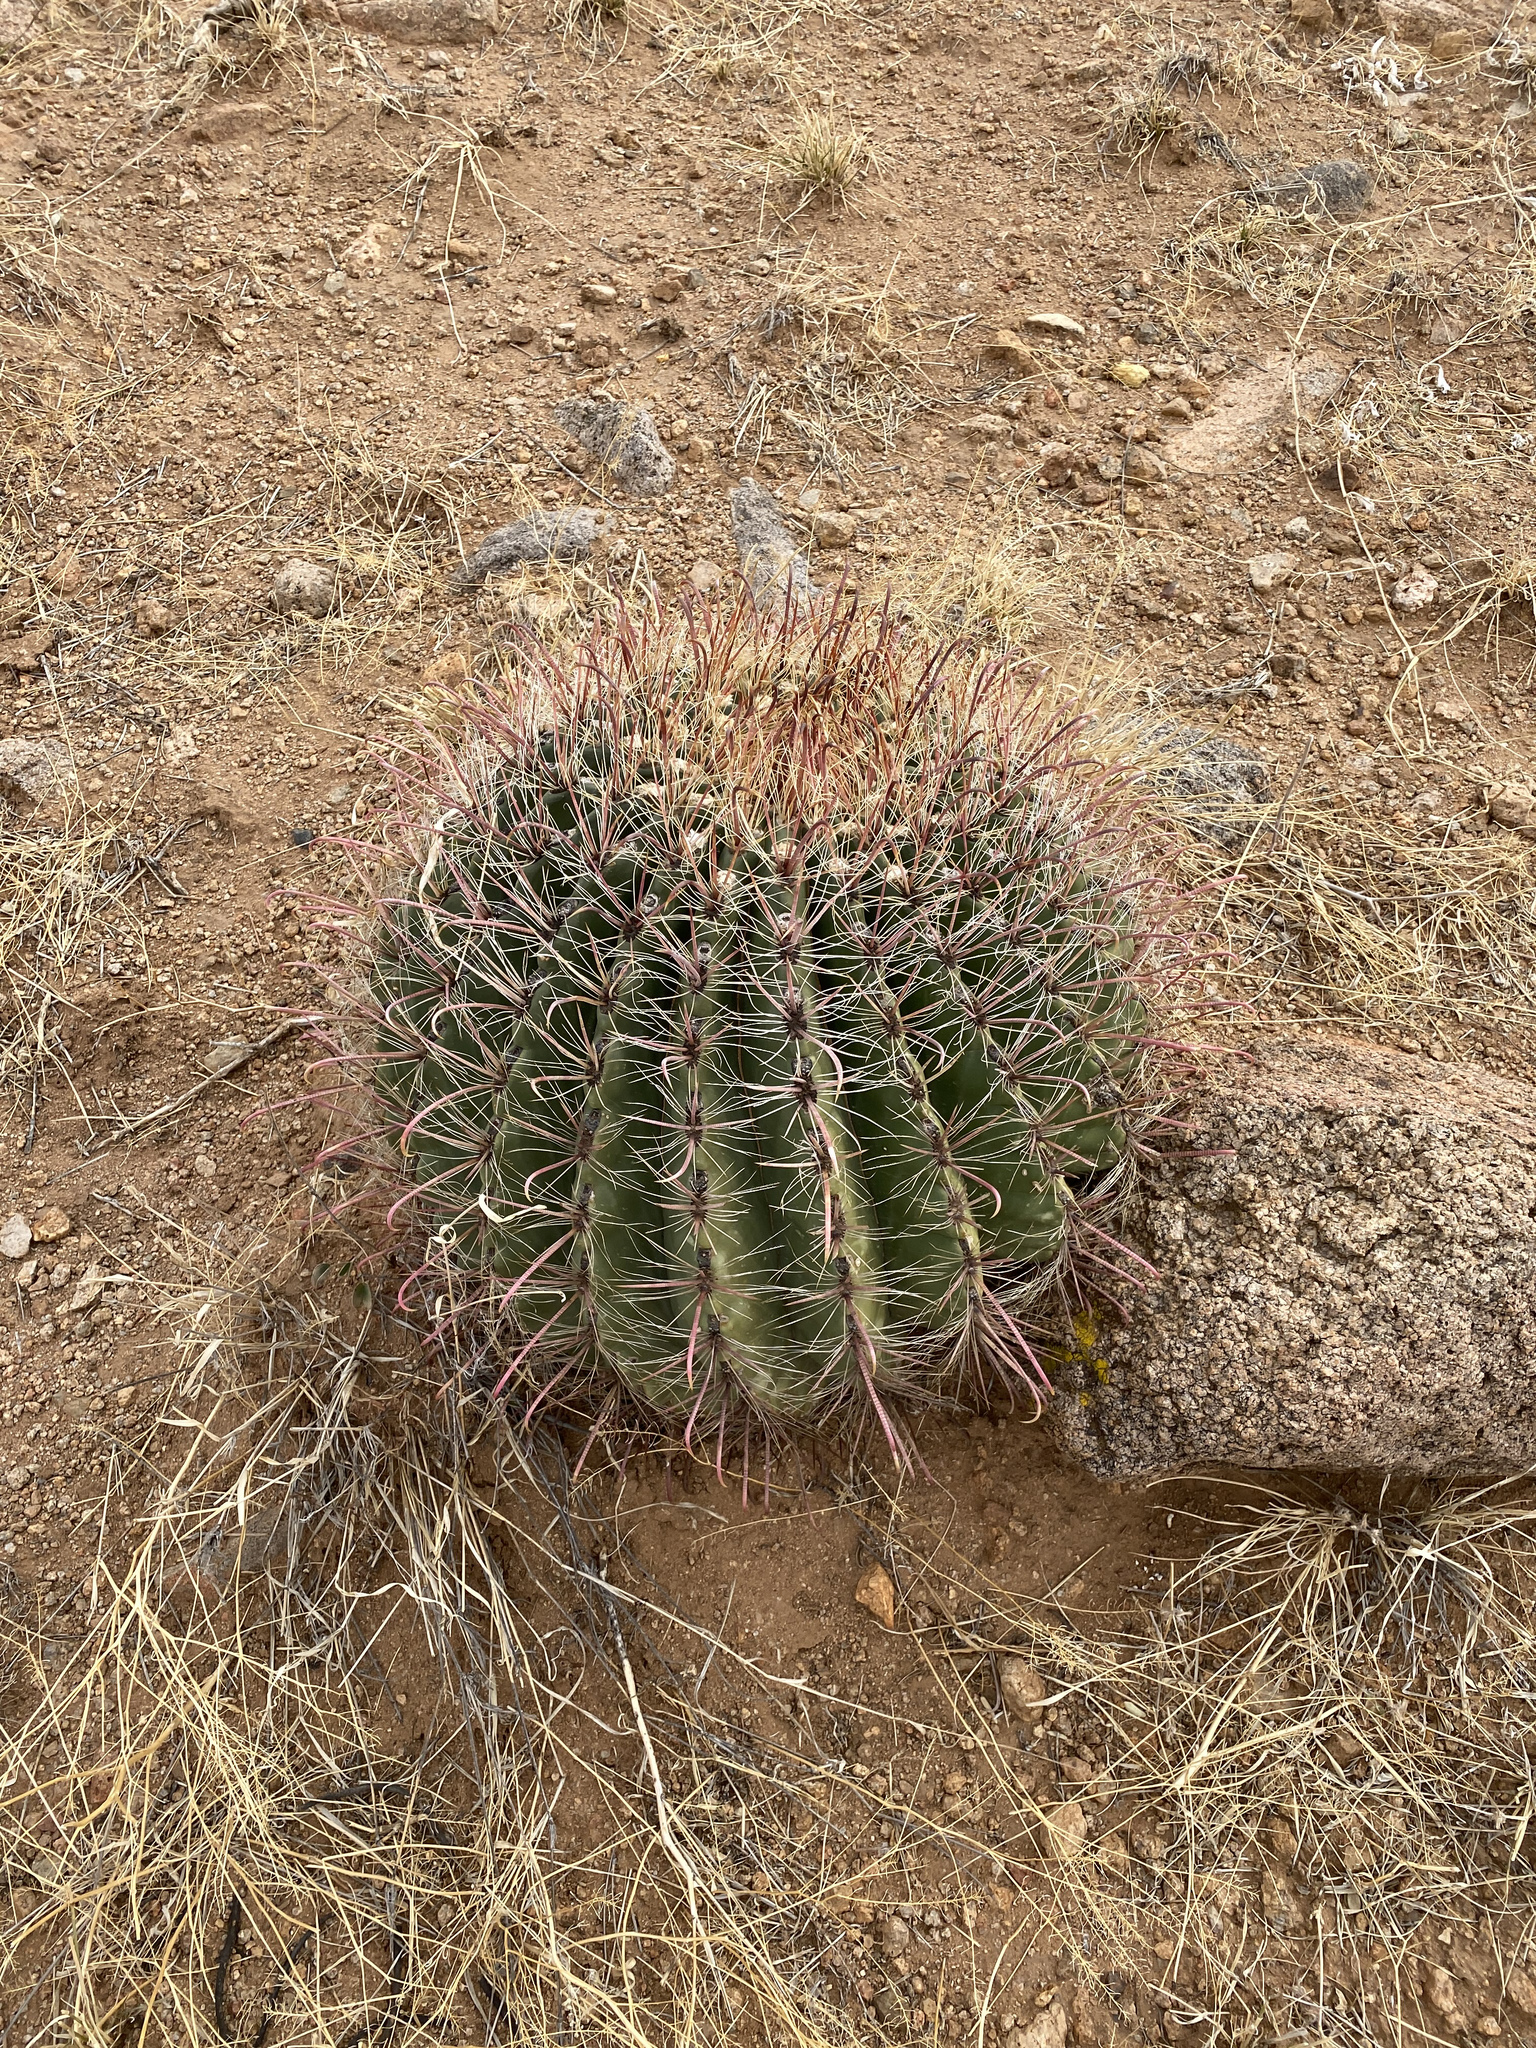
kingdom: Plantae
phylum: Tracheophyta
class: Magnoliopsida
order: Caryophyllales
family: Cactaceae
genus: Ferocactus
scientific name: Ferocactus wislizeni
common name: Candy barrel cactus
